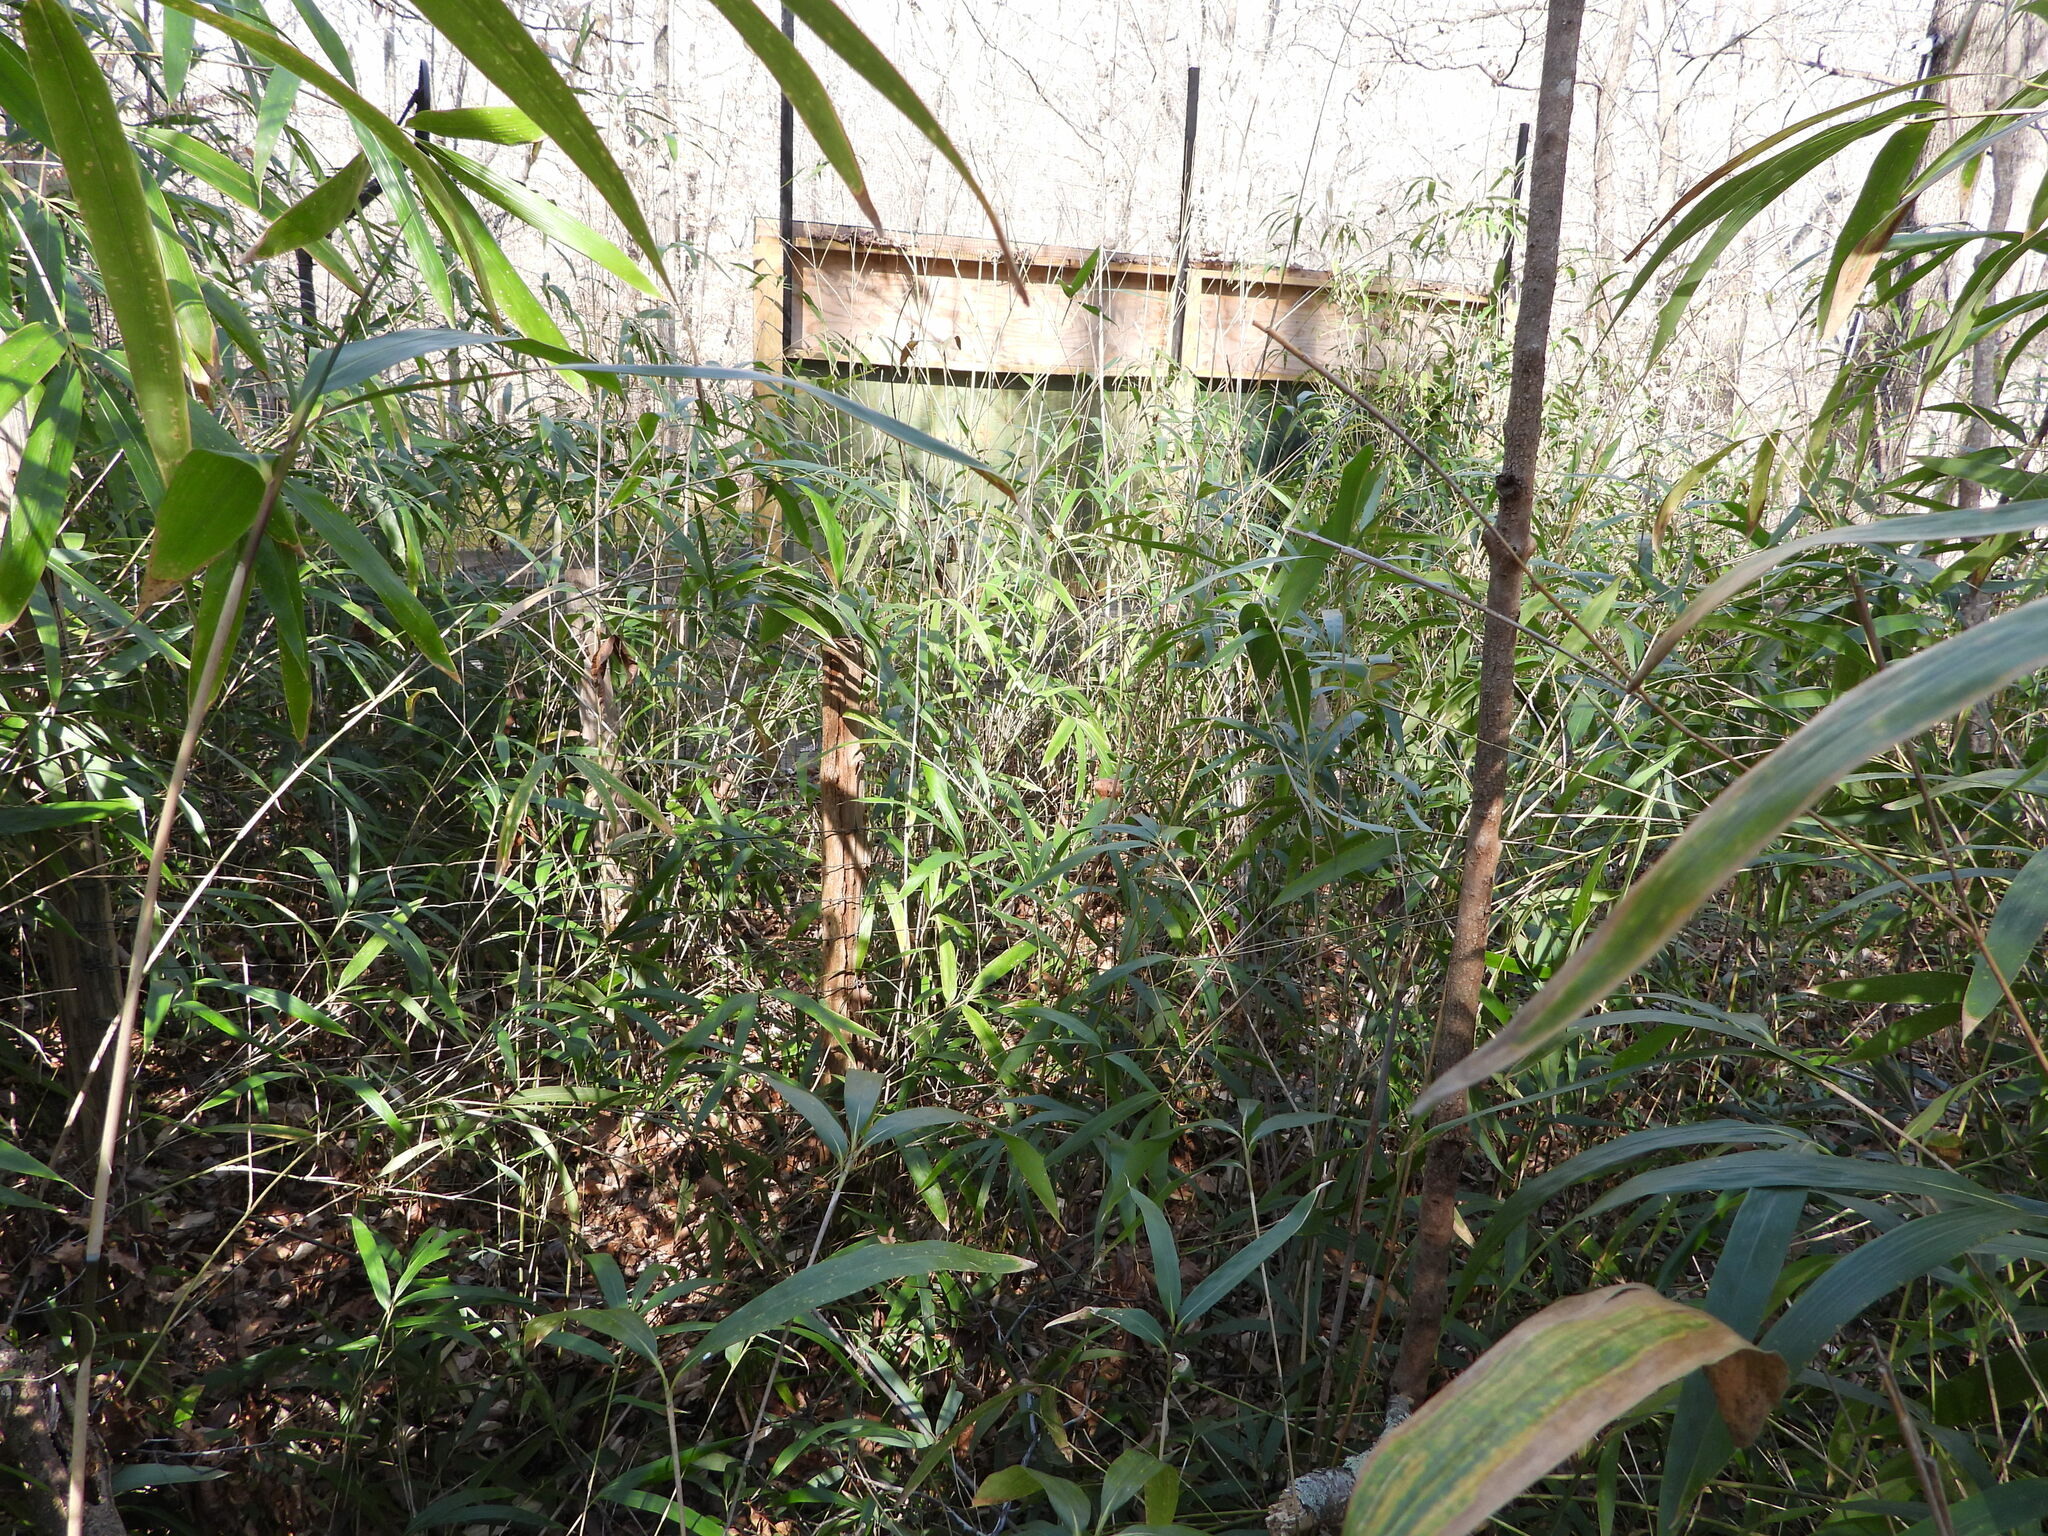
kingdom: Plantae
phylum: Tracheophyta
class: Liliopsida
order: Poales
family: Poaceae
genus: Arundinaria
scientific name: Arundinaria gigantea
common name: Giant cane
